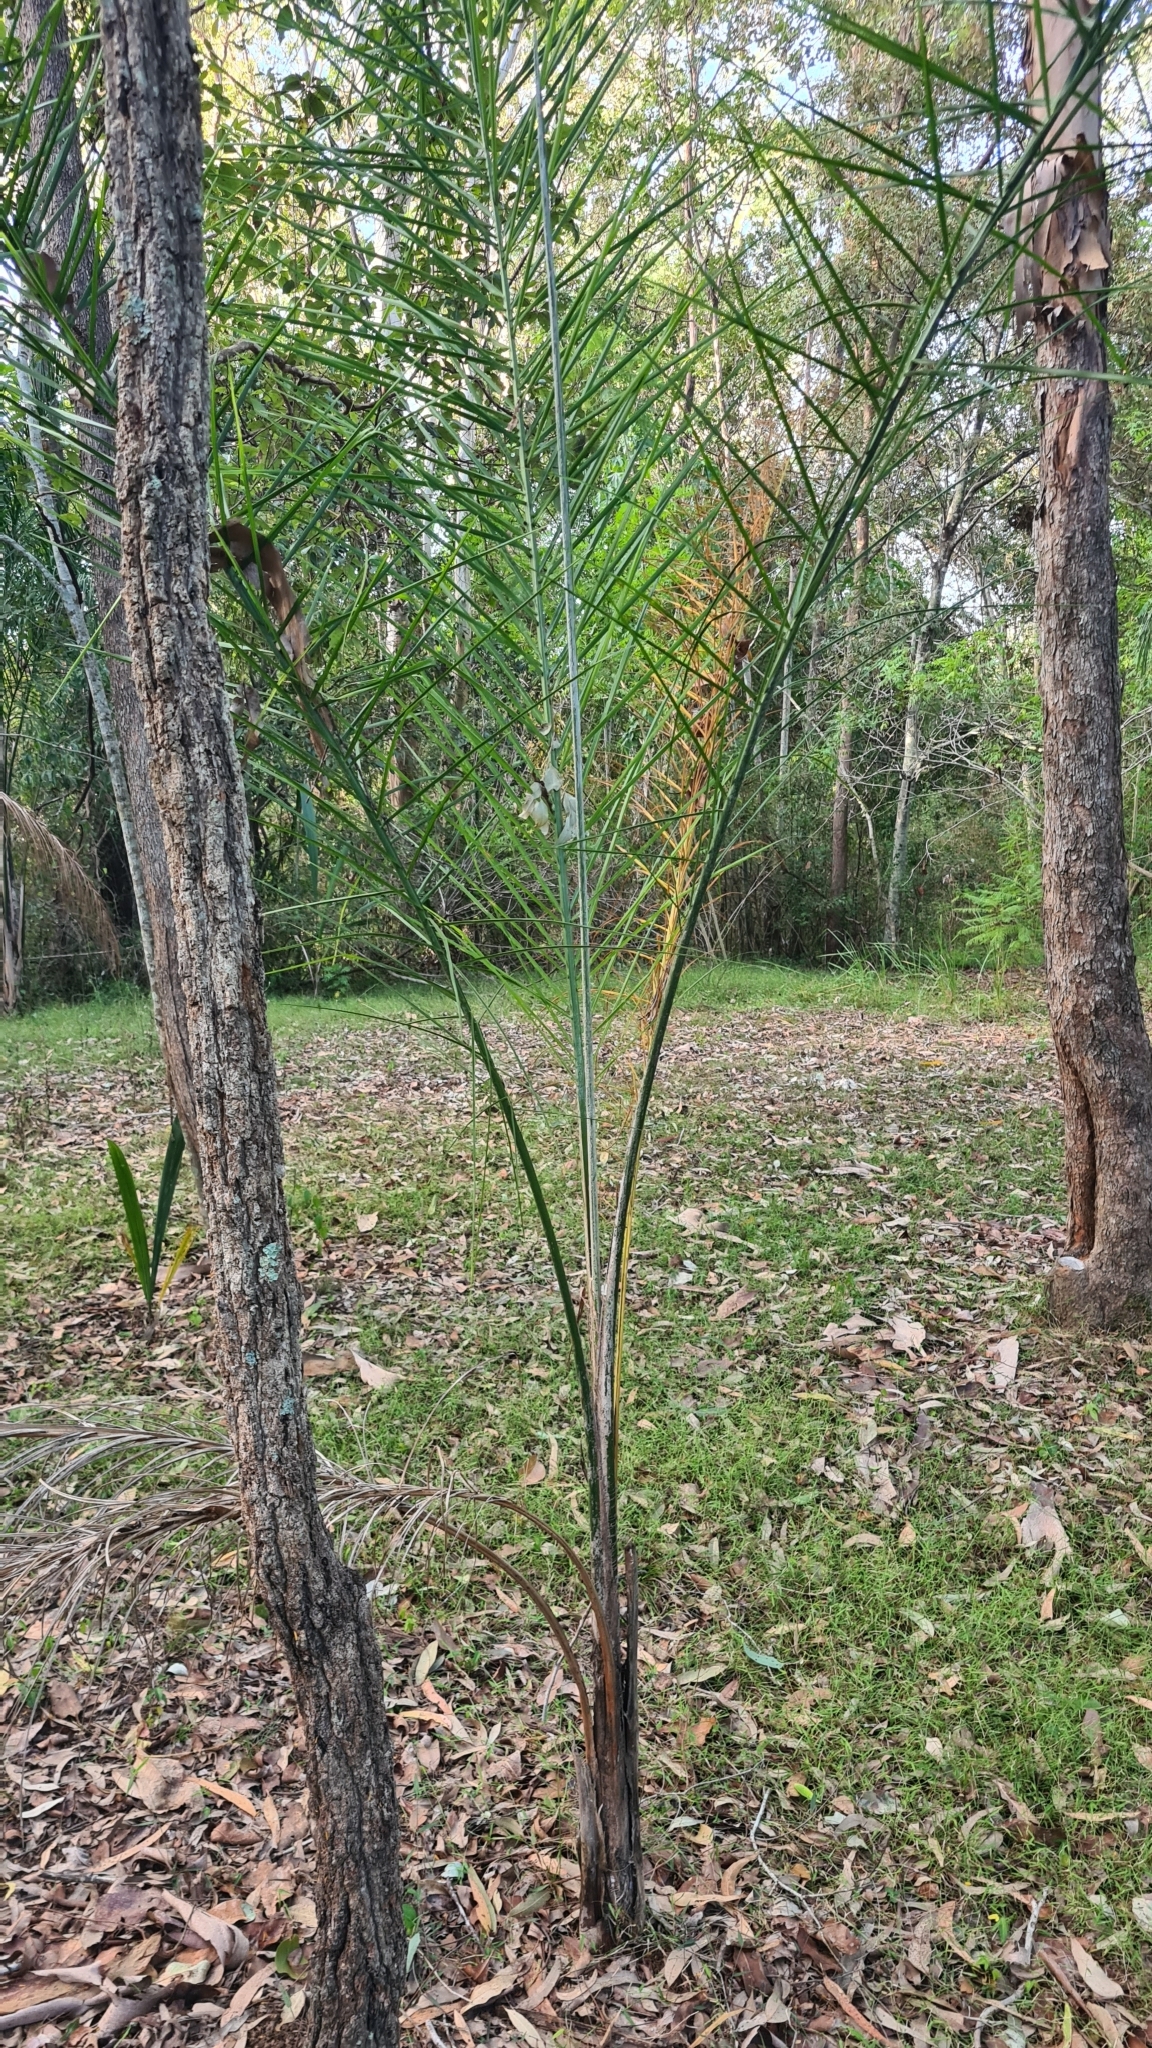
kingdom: Plantae
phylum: Tracheophyta
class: Liliopsida
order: Arecales
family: Arecaceae
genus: Syagrus
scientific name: Syagrus romanzoffiana
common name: Queen palm
